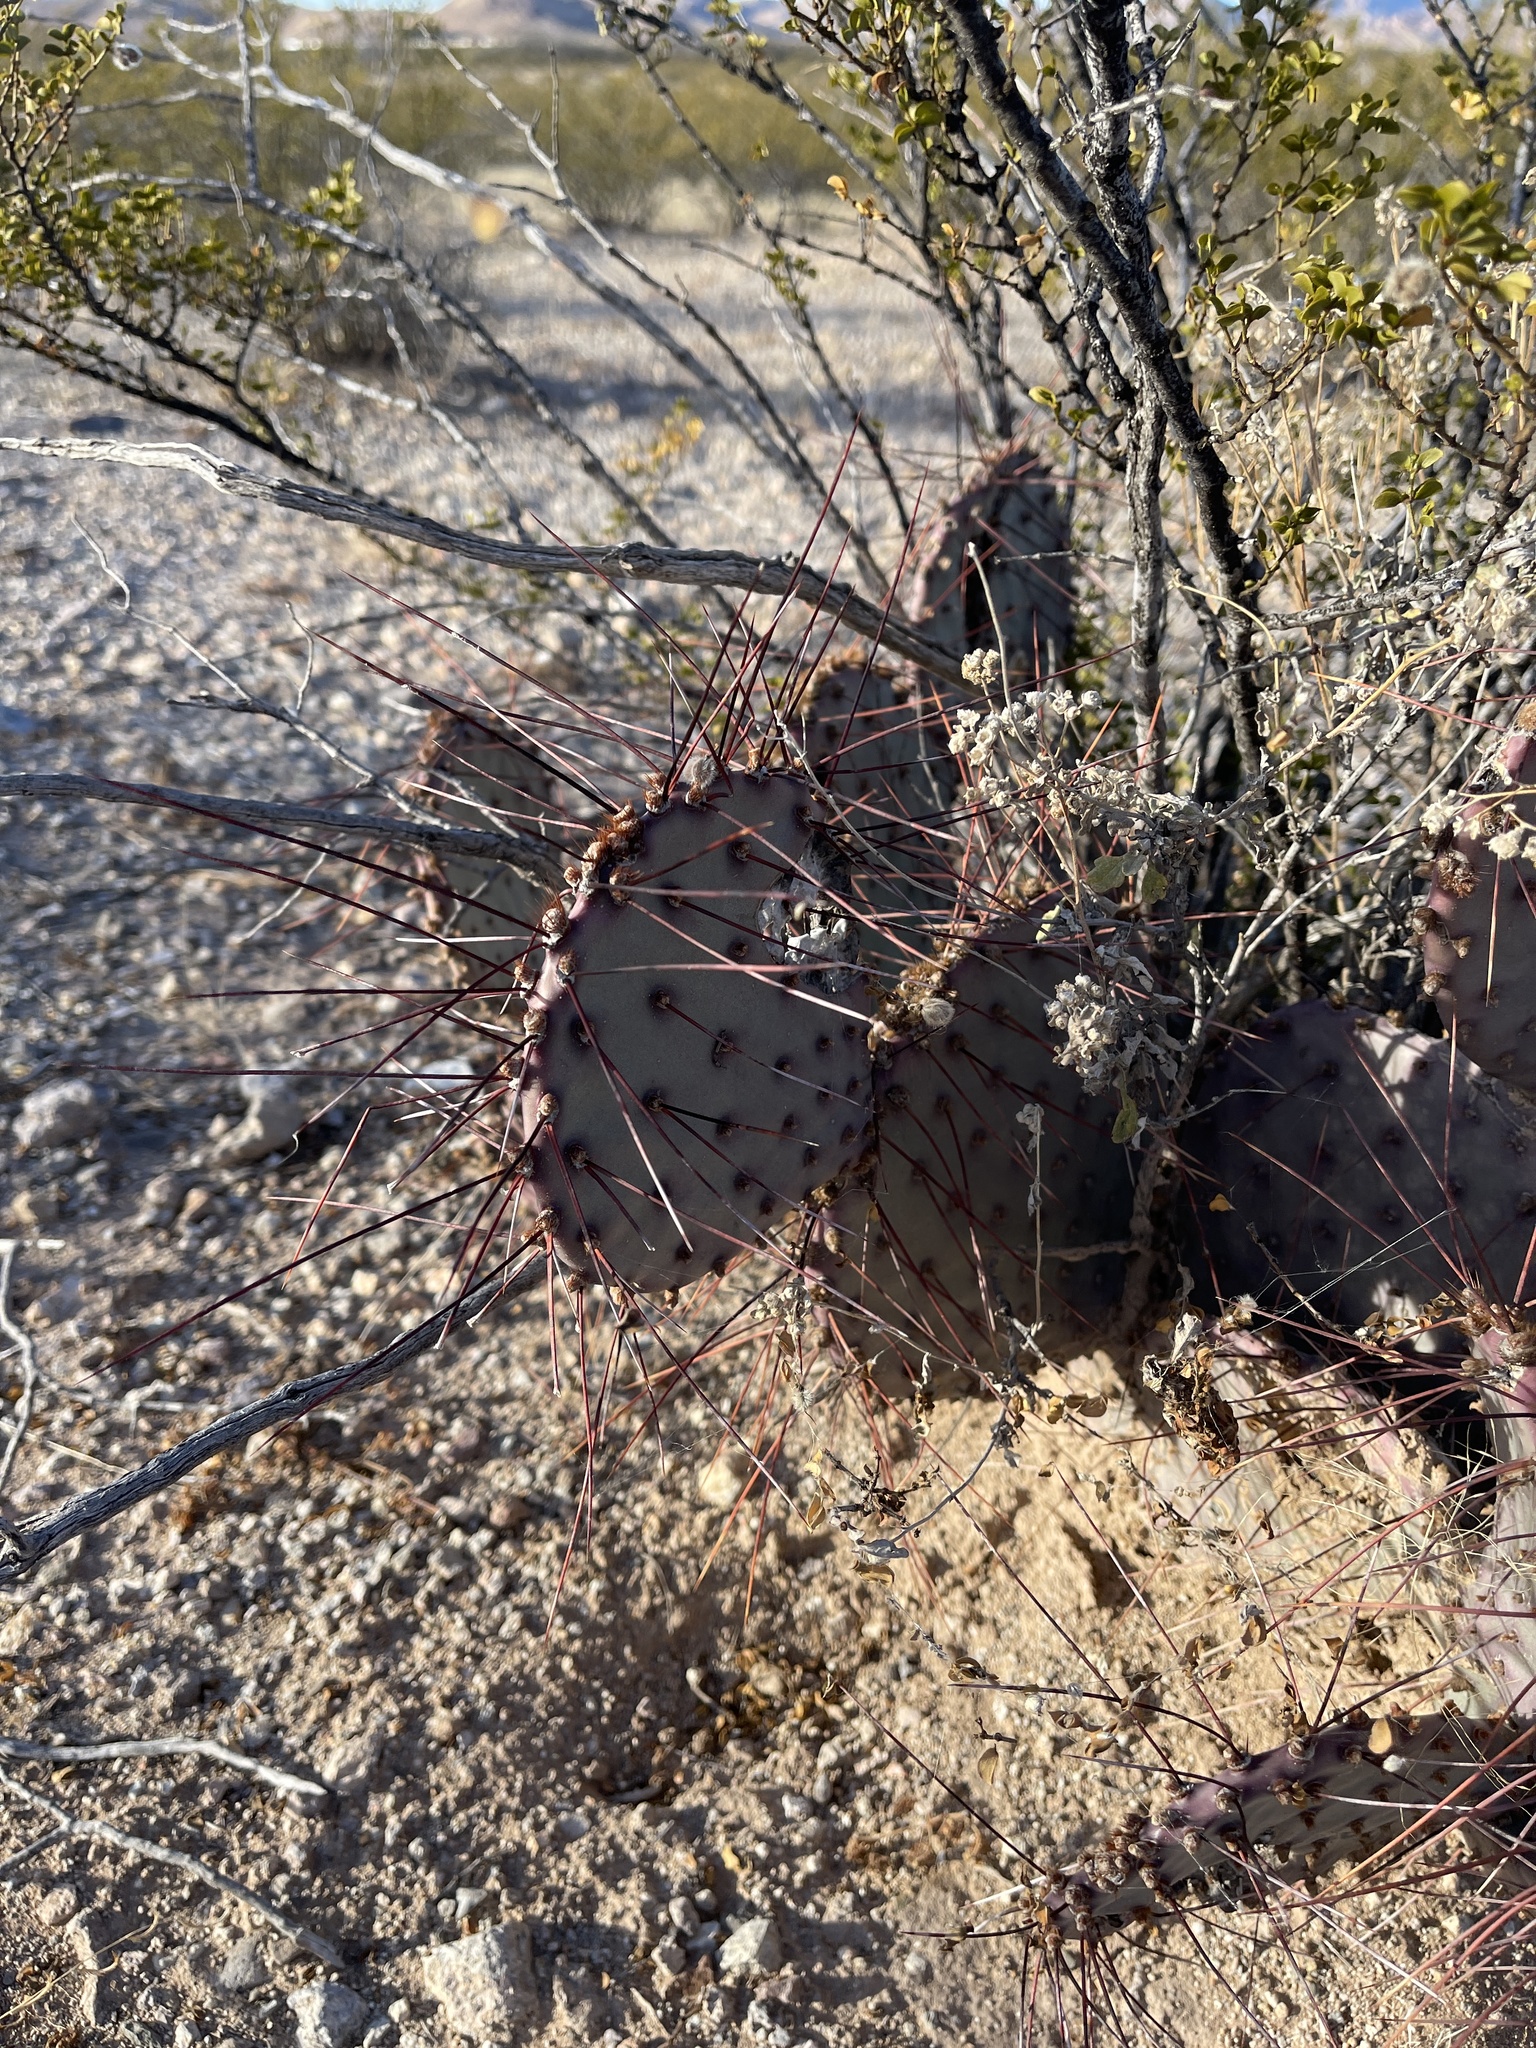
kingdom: Plantae
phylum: Tracheophyta
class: Magnoliopsida
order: Caryophyllales
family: Cactaceae
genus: Opuntia
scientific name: Opuntia macrocentra
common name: Purple prickly-pear
